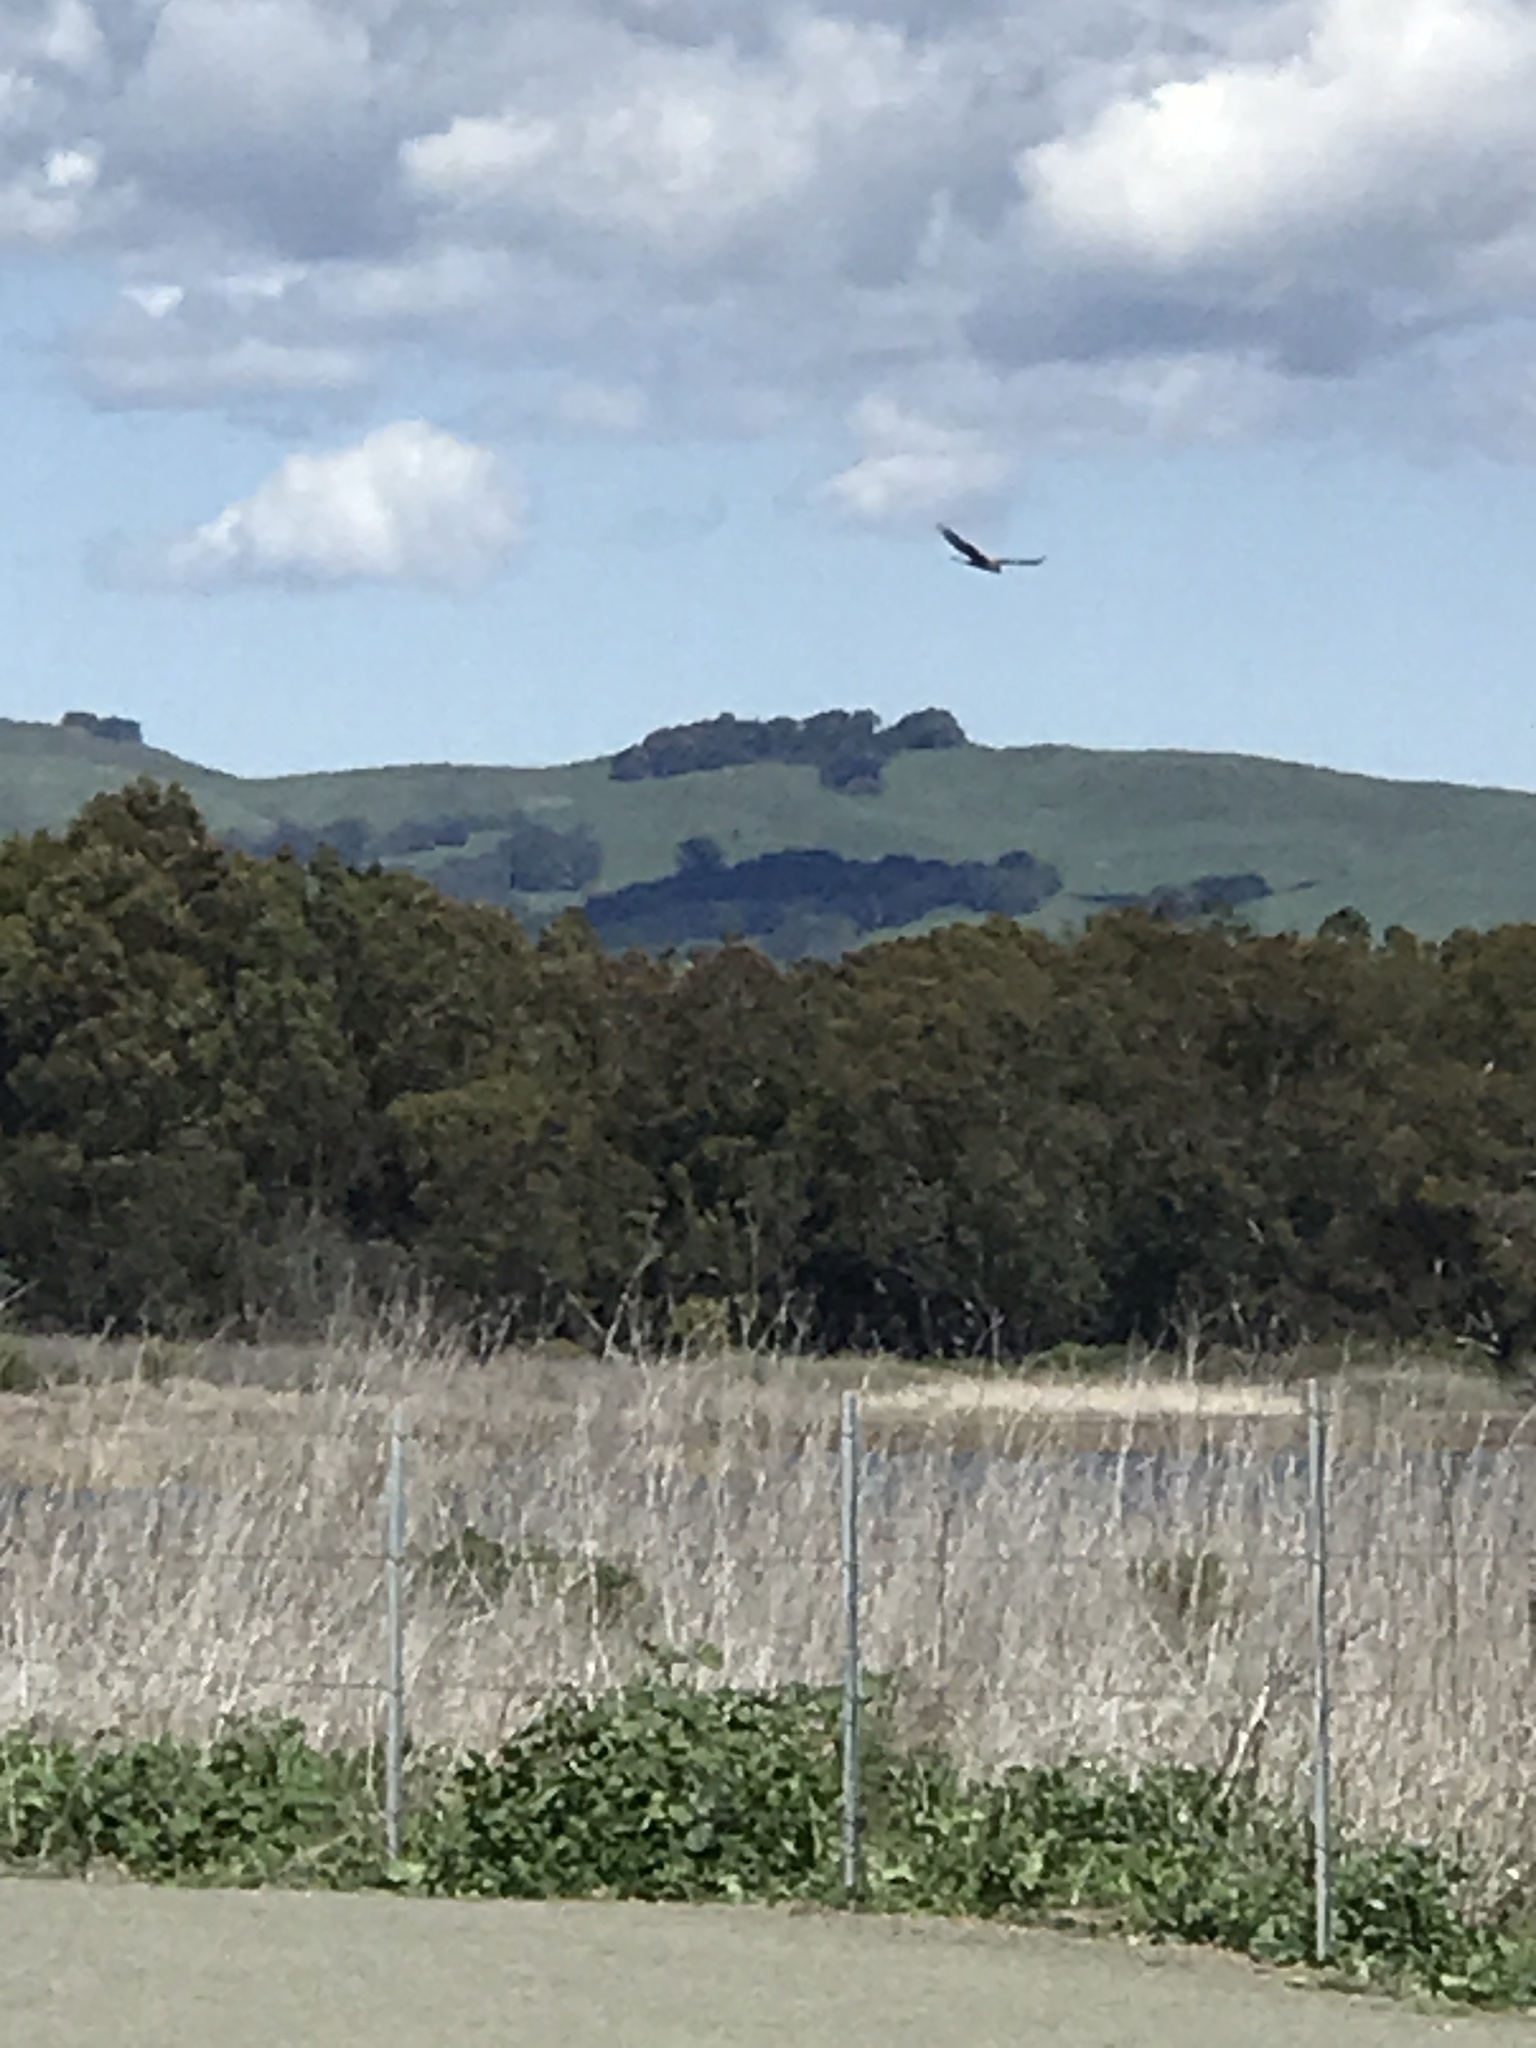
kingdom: Animalia
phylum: Chordata
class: Aves
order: Accipitriformes
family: Accipitridae
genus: Circus
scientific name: Circus cyaneus
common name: Hen harrier
